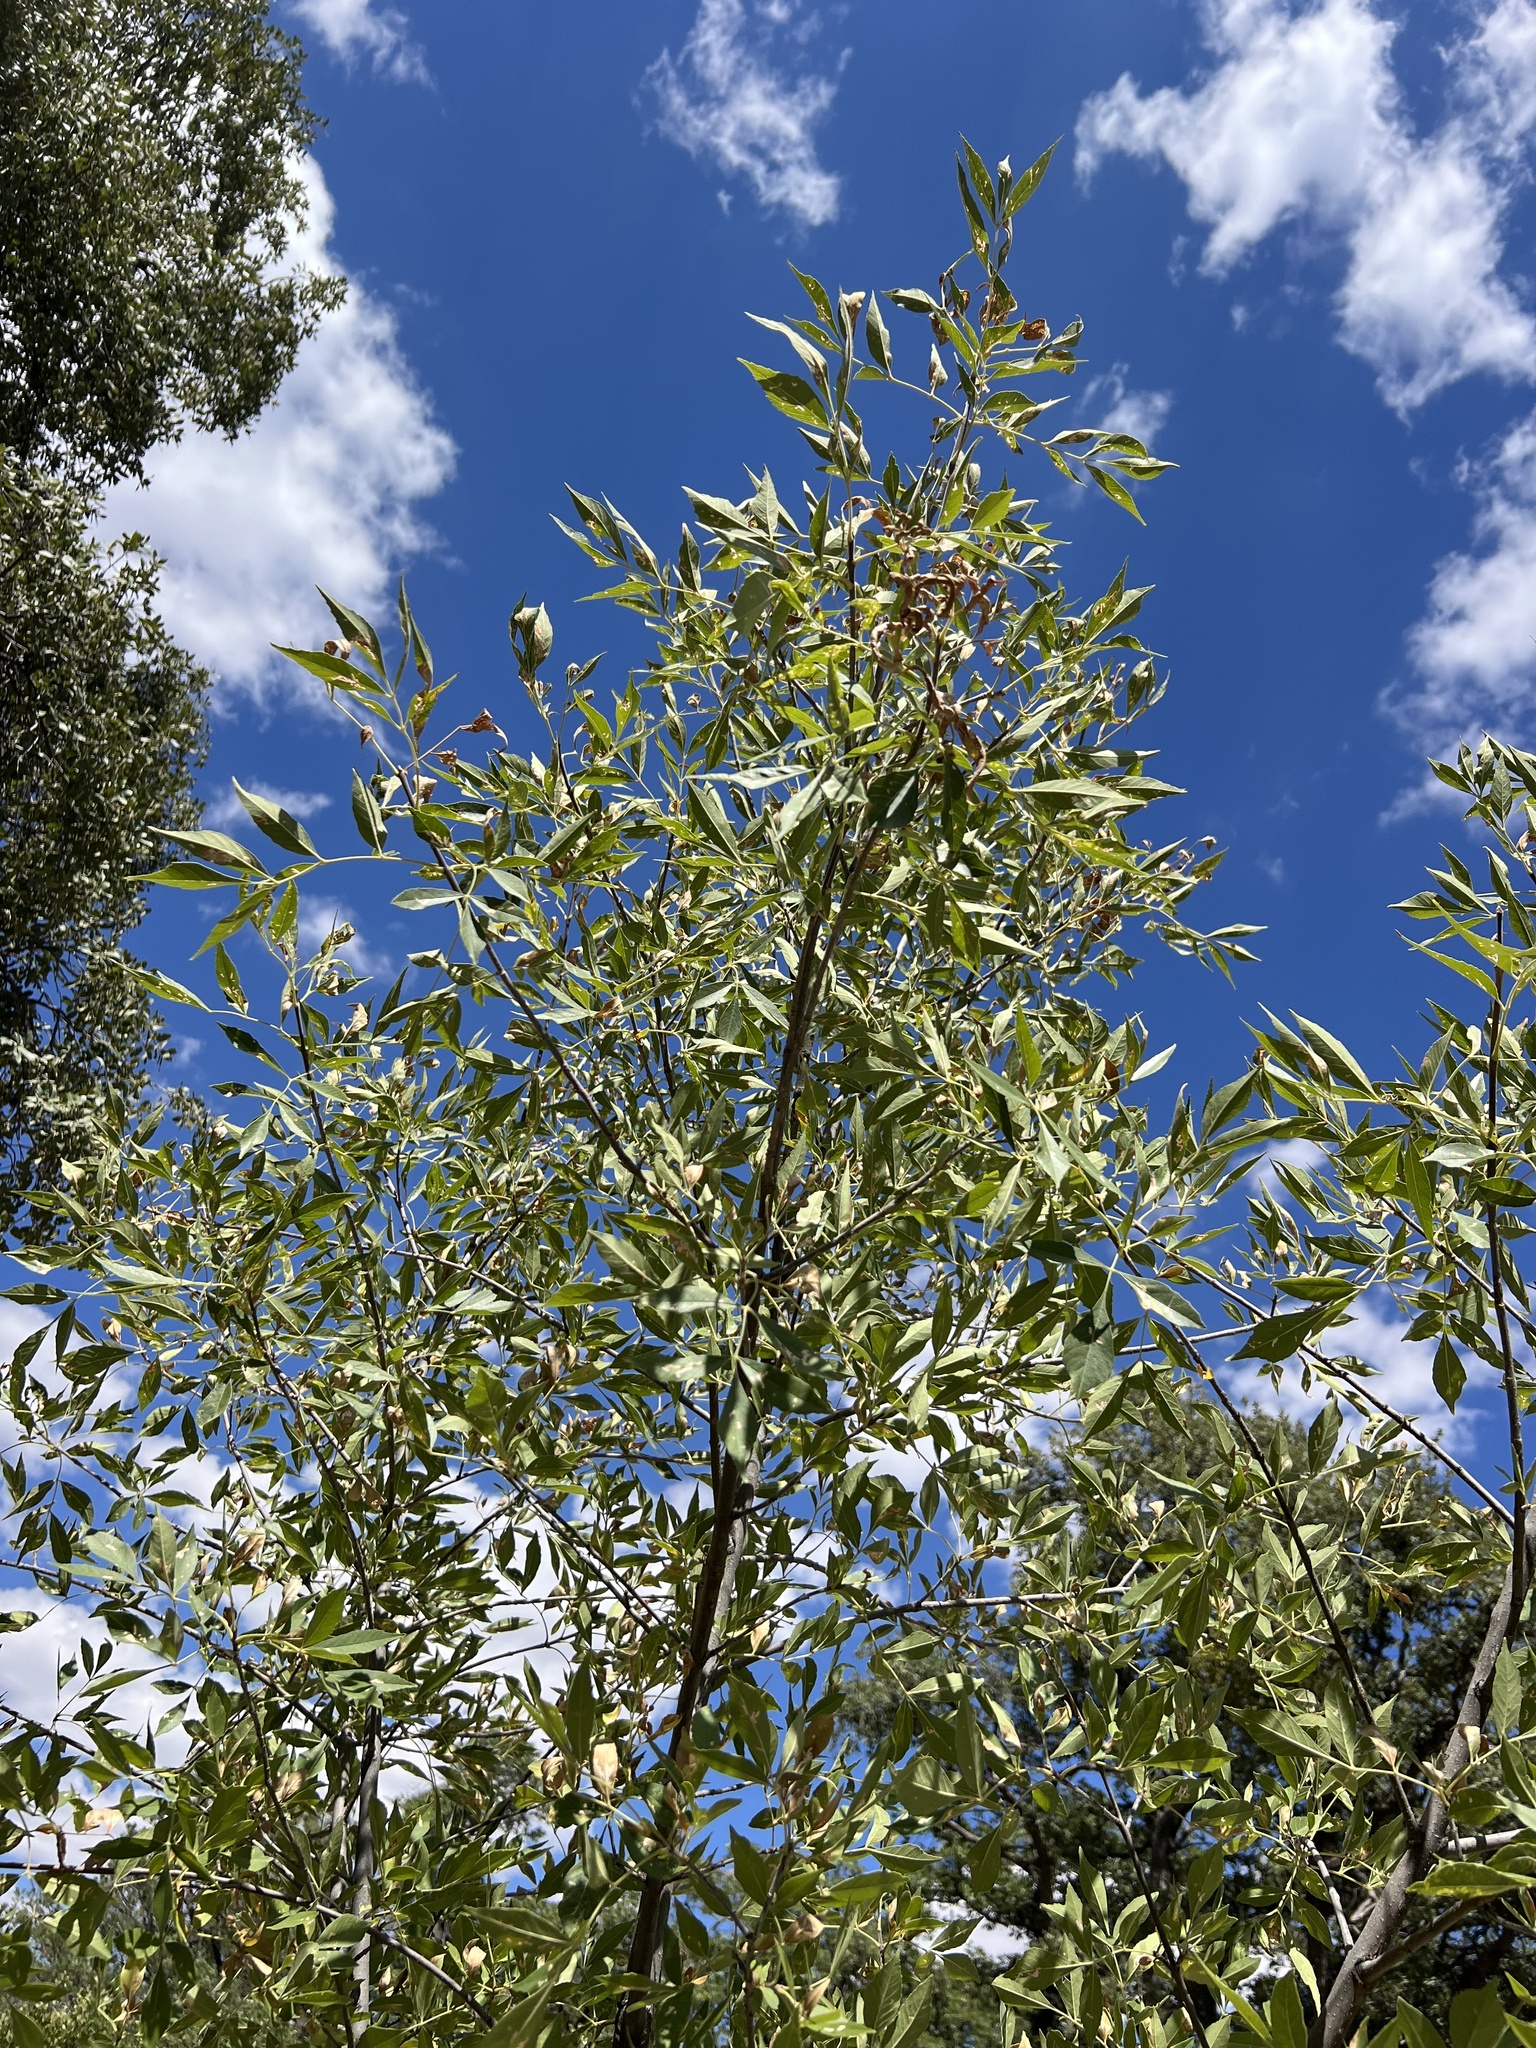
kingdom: Plantae
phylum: Tracheophyta
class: Magnoliopsida
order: Lamiales
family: Oleaceae
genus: Fraxinus
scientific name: Fraxinus velutina
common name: Arizon ash
